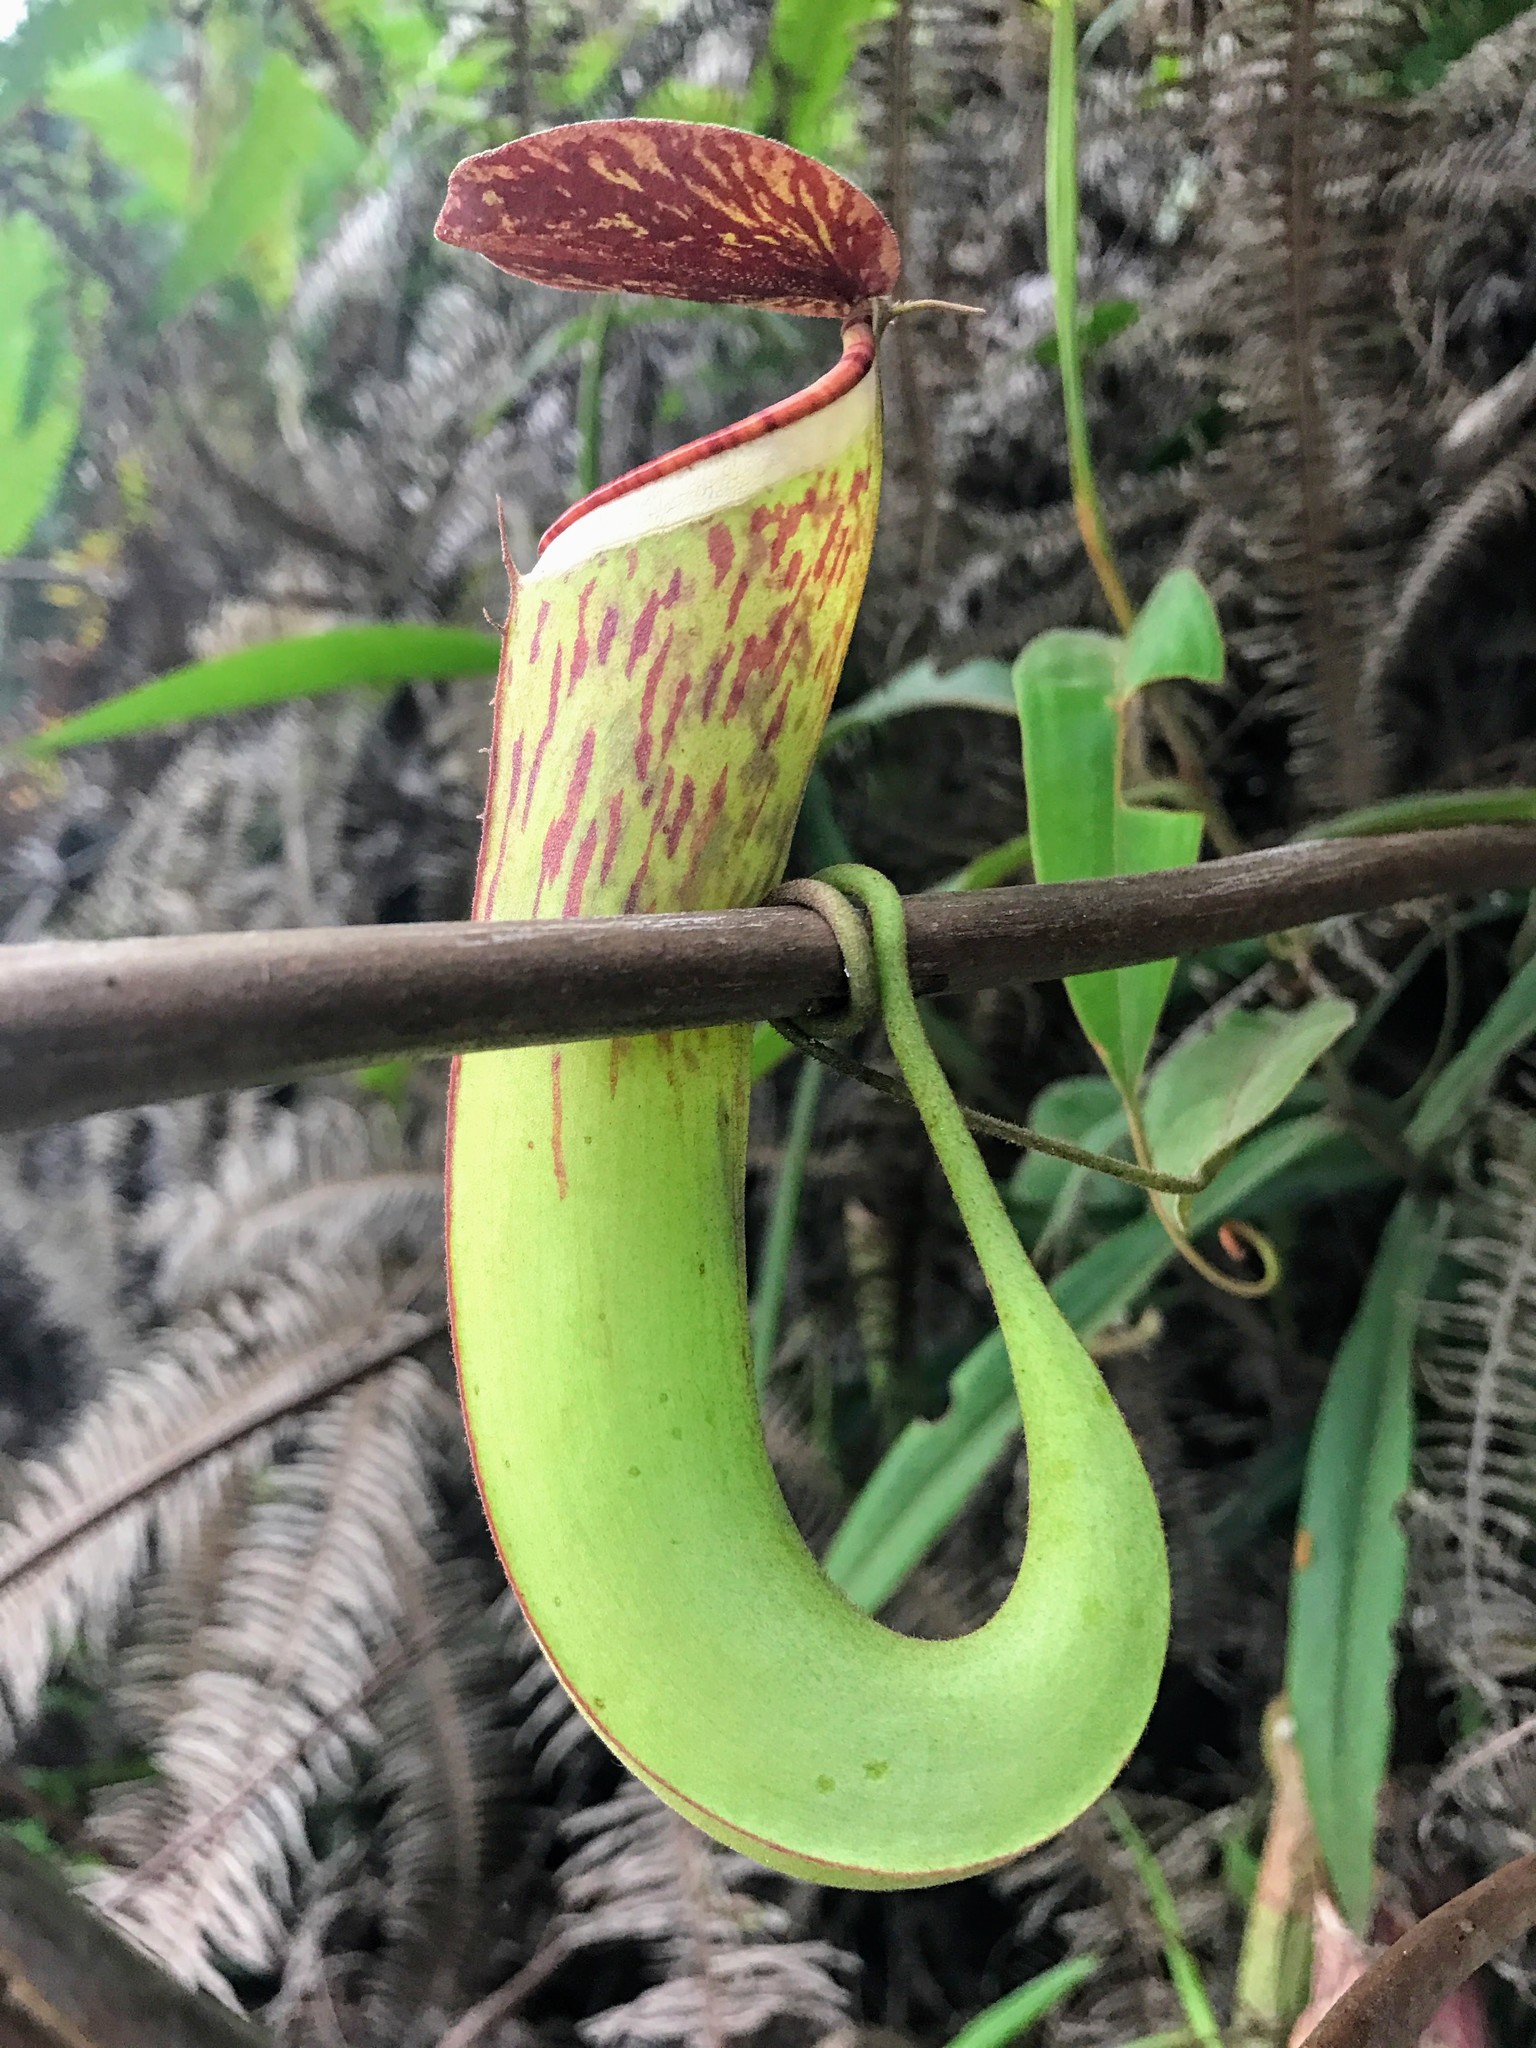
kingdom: Plantae
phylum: Tracheophyta
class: Magnoliopsida
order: Caryophyllales
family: Nepenthaceae
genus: Nepenthes
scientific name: Nepenthes albomarginata
